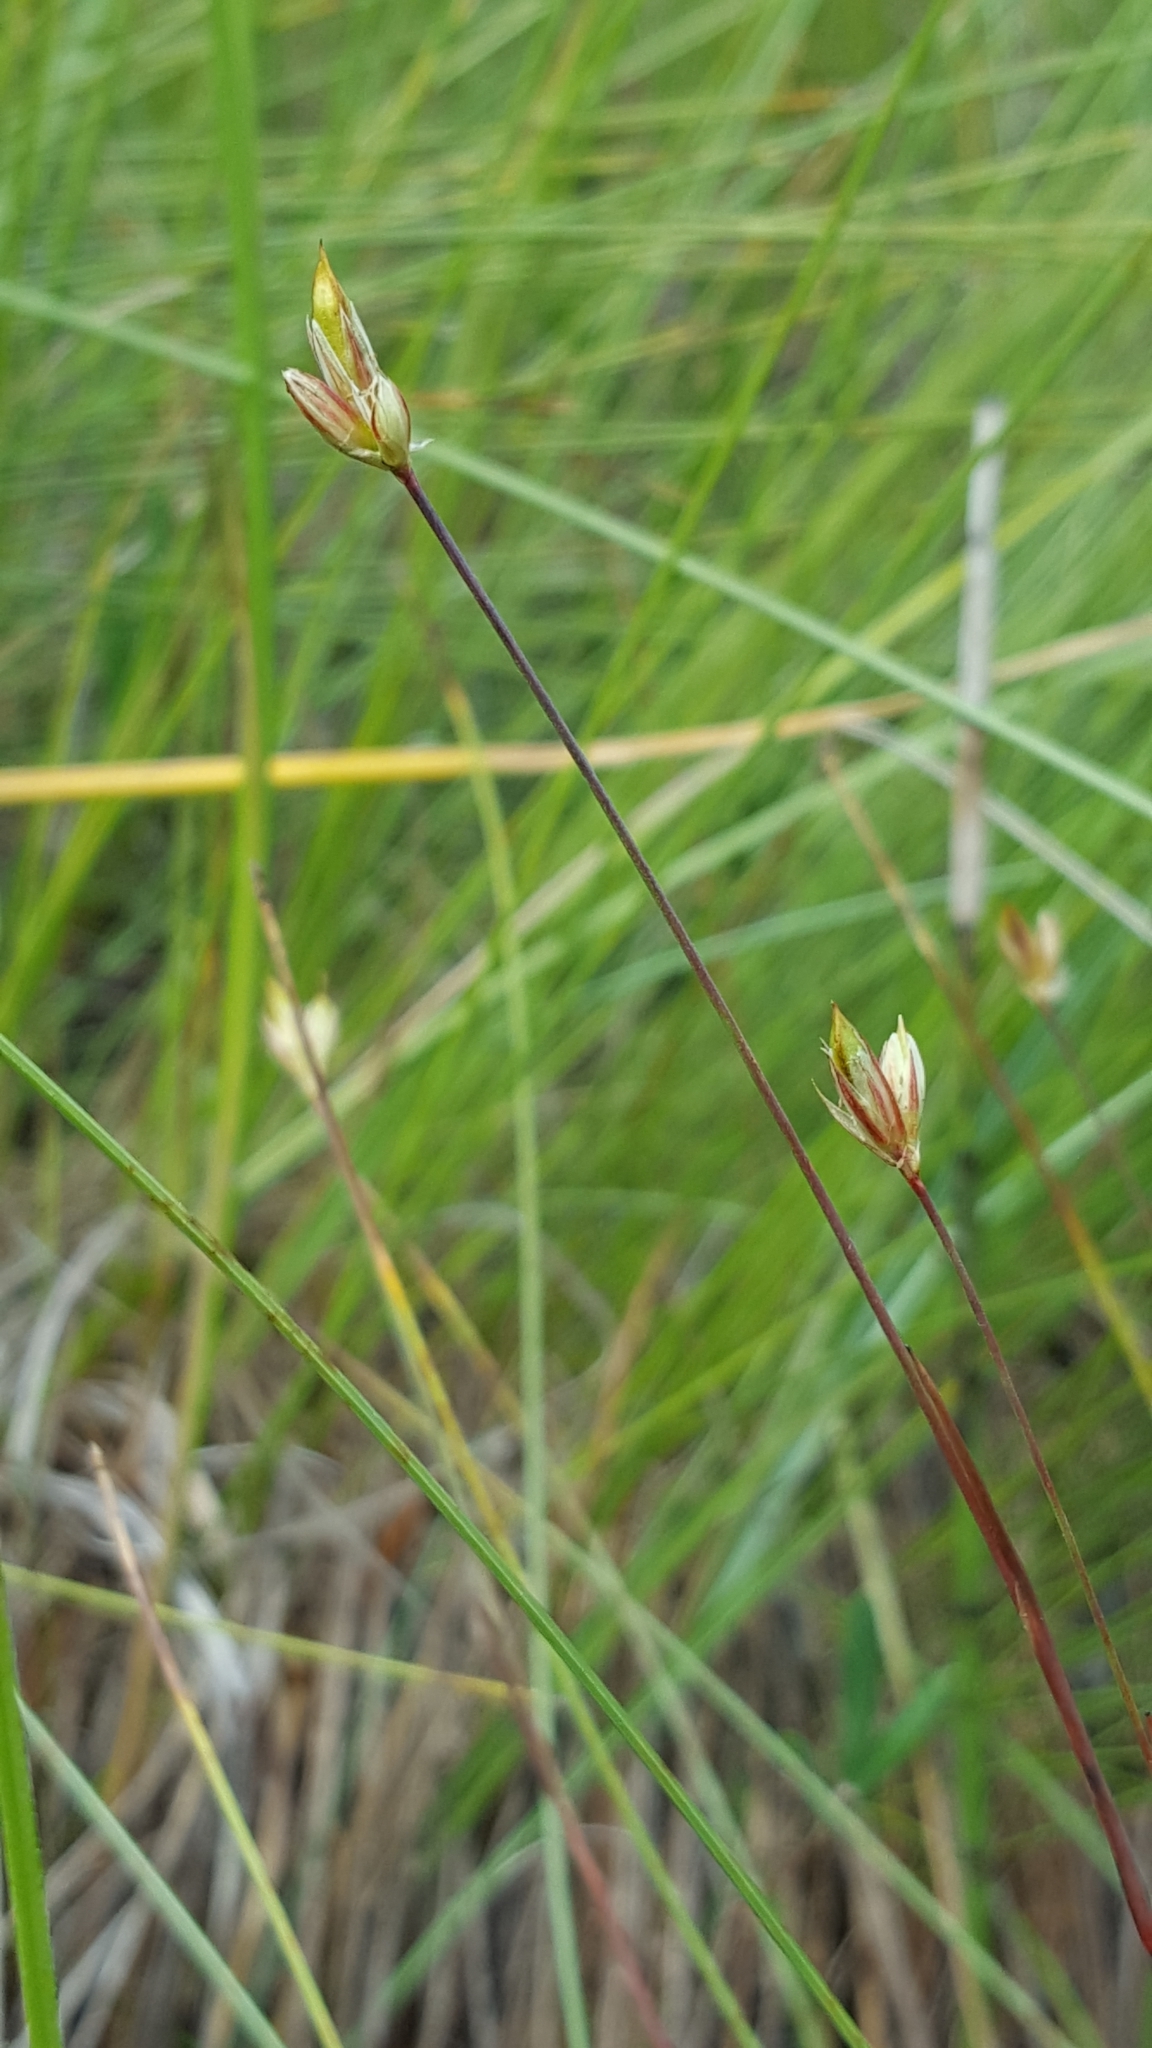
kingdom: Plantae
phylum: Tracheophyta
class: Liliopsida
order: Poales
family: Juncaceae
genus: Juncus
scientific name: Juncus stygius
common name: Bog rush
